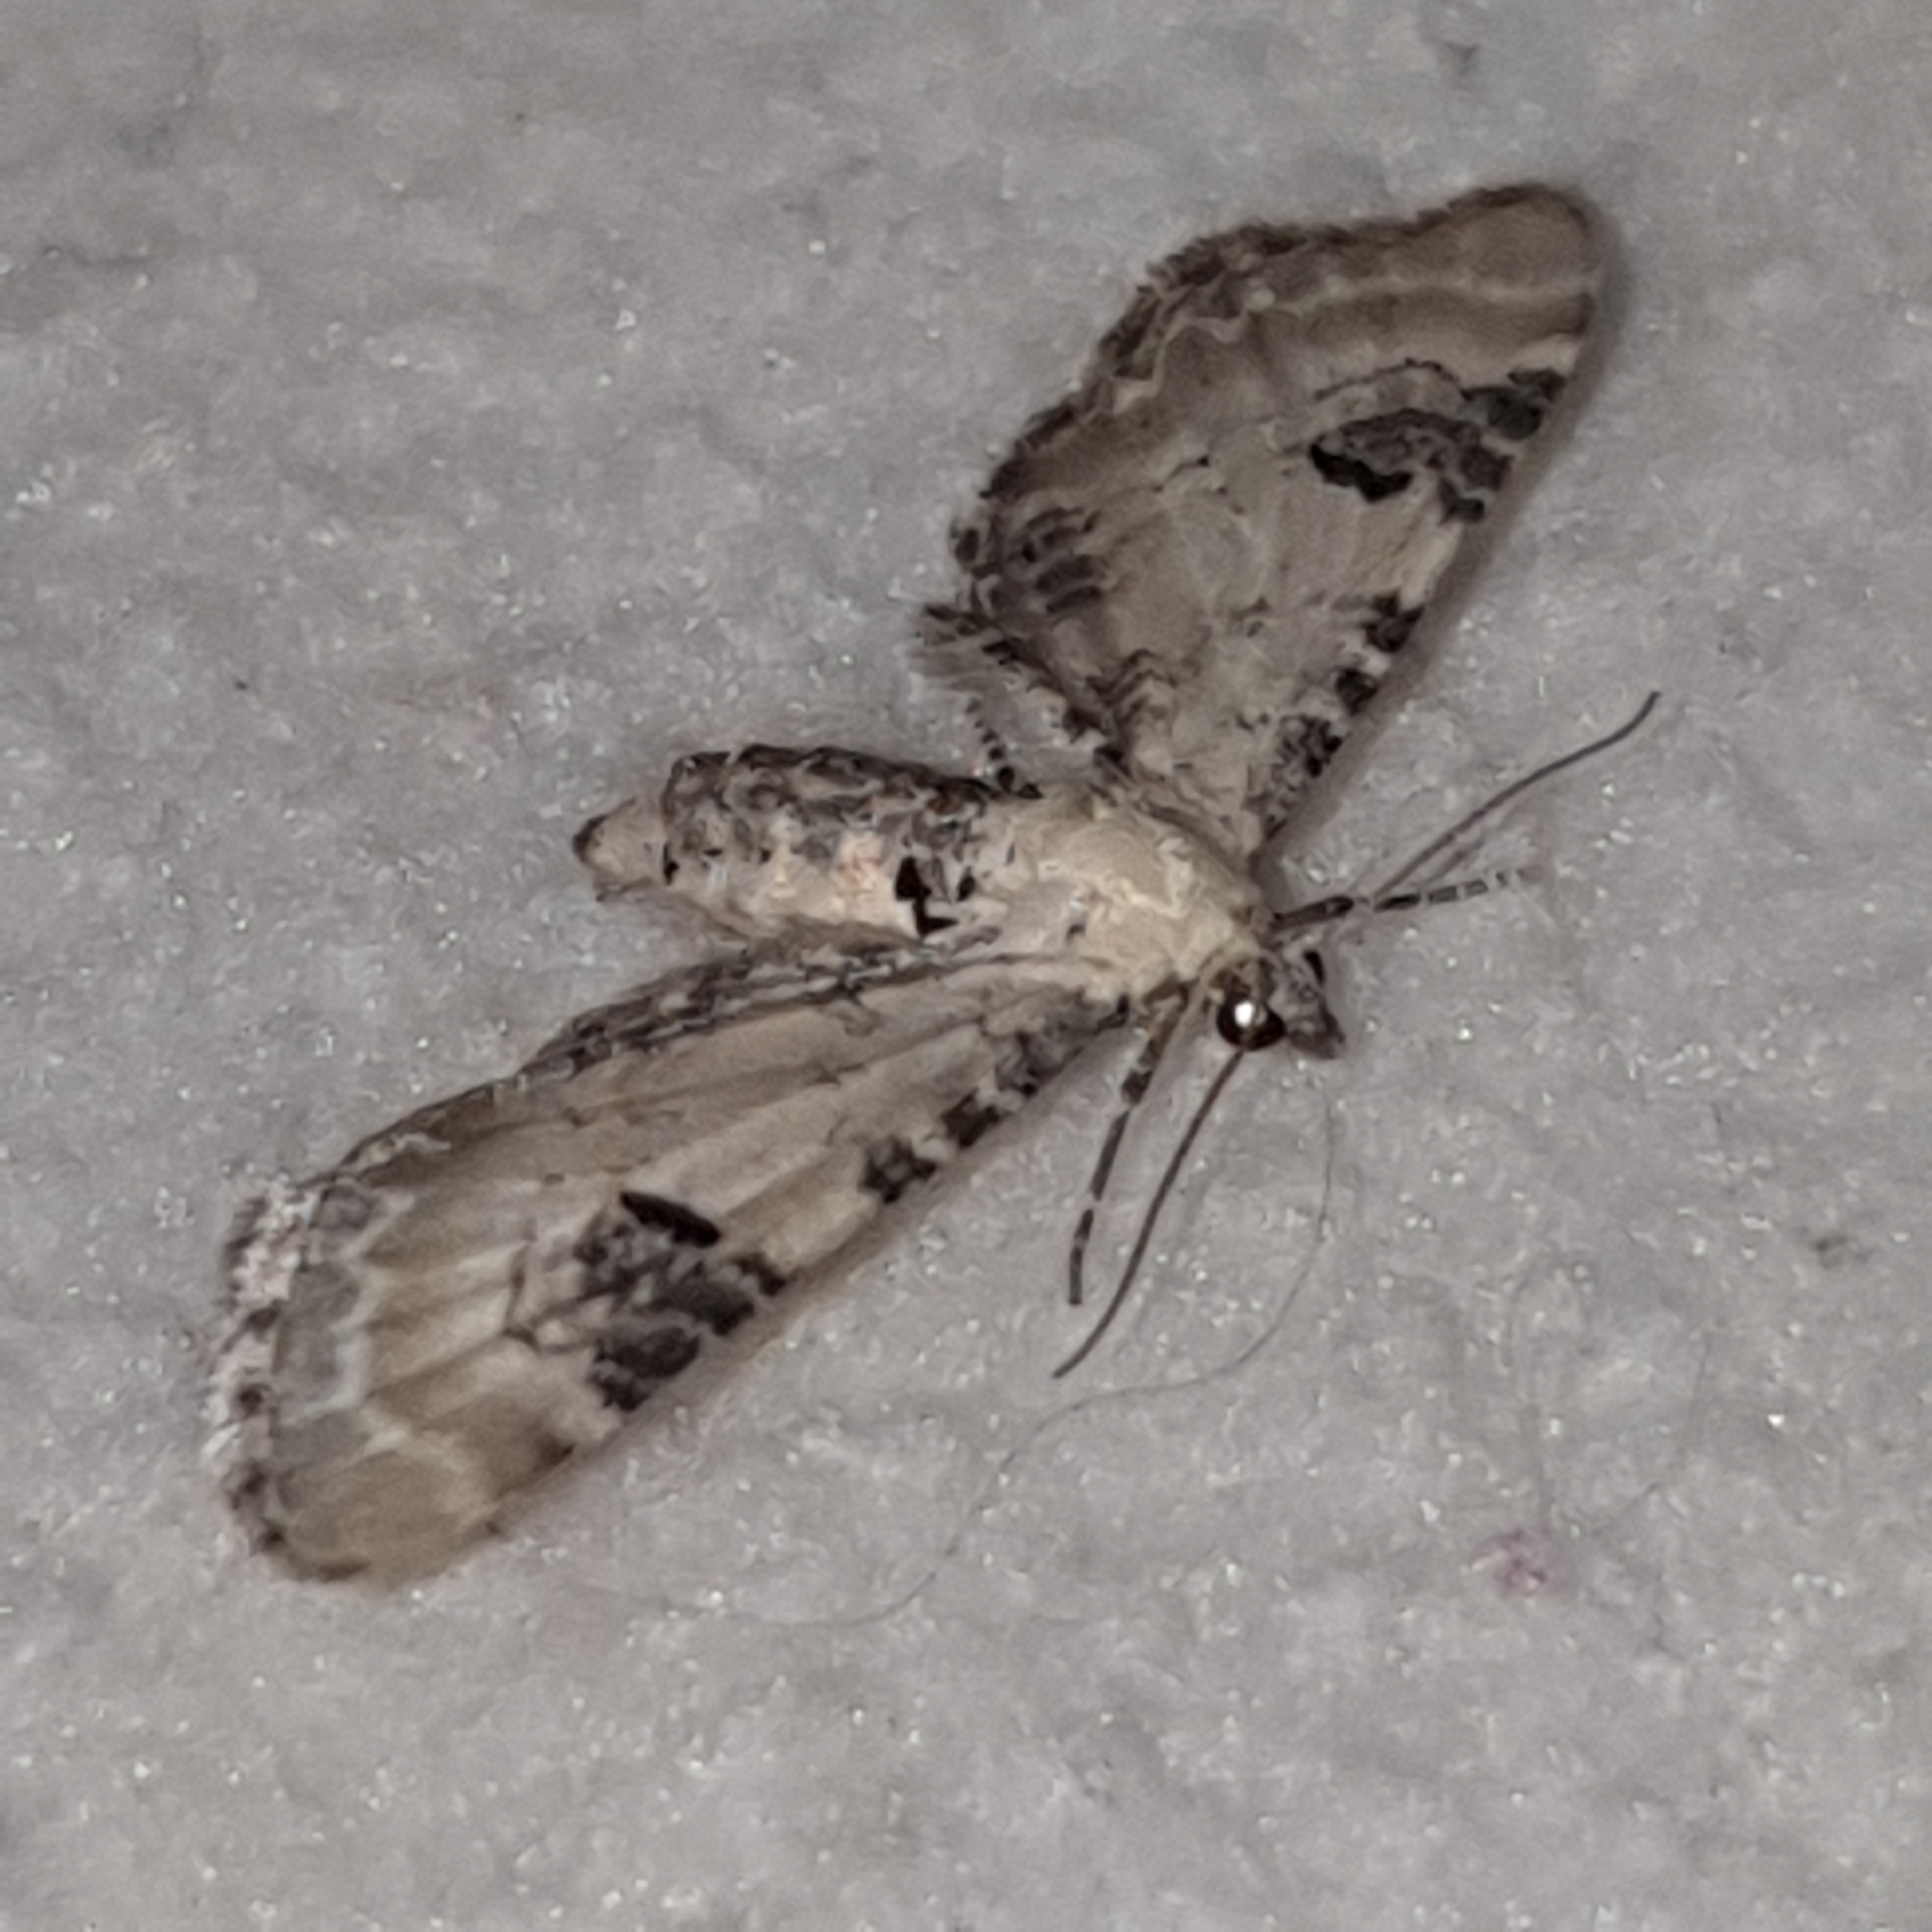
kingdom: Animalia
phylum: Arthropoda
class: Insecta
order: Lepidoptera
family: Geometridae
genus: Eupithecia
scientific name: Eupithecia centaureata
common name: Lime-speck pug
